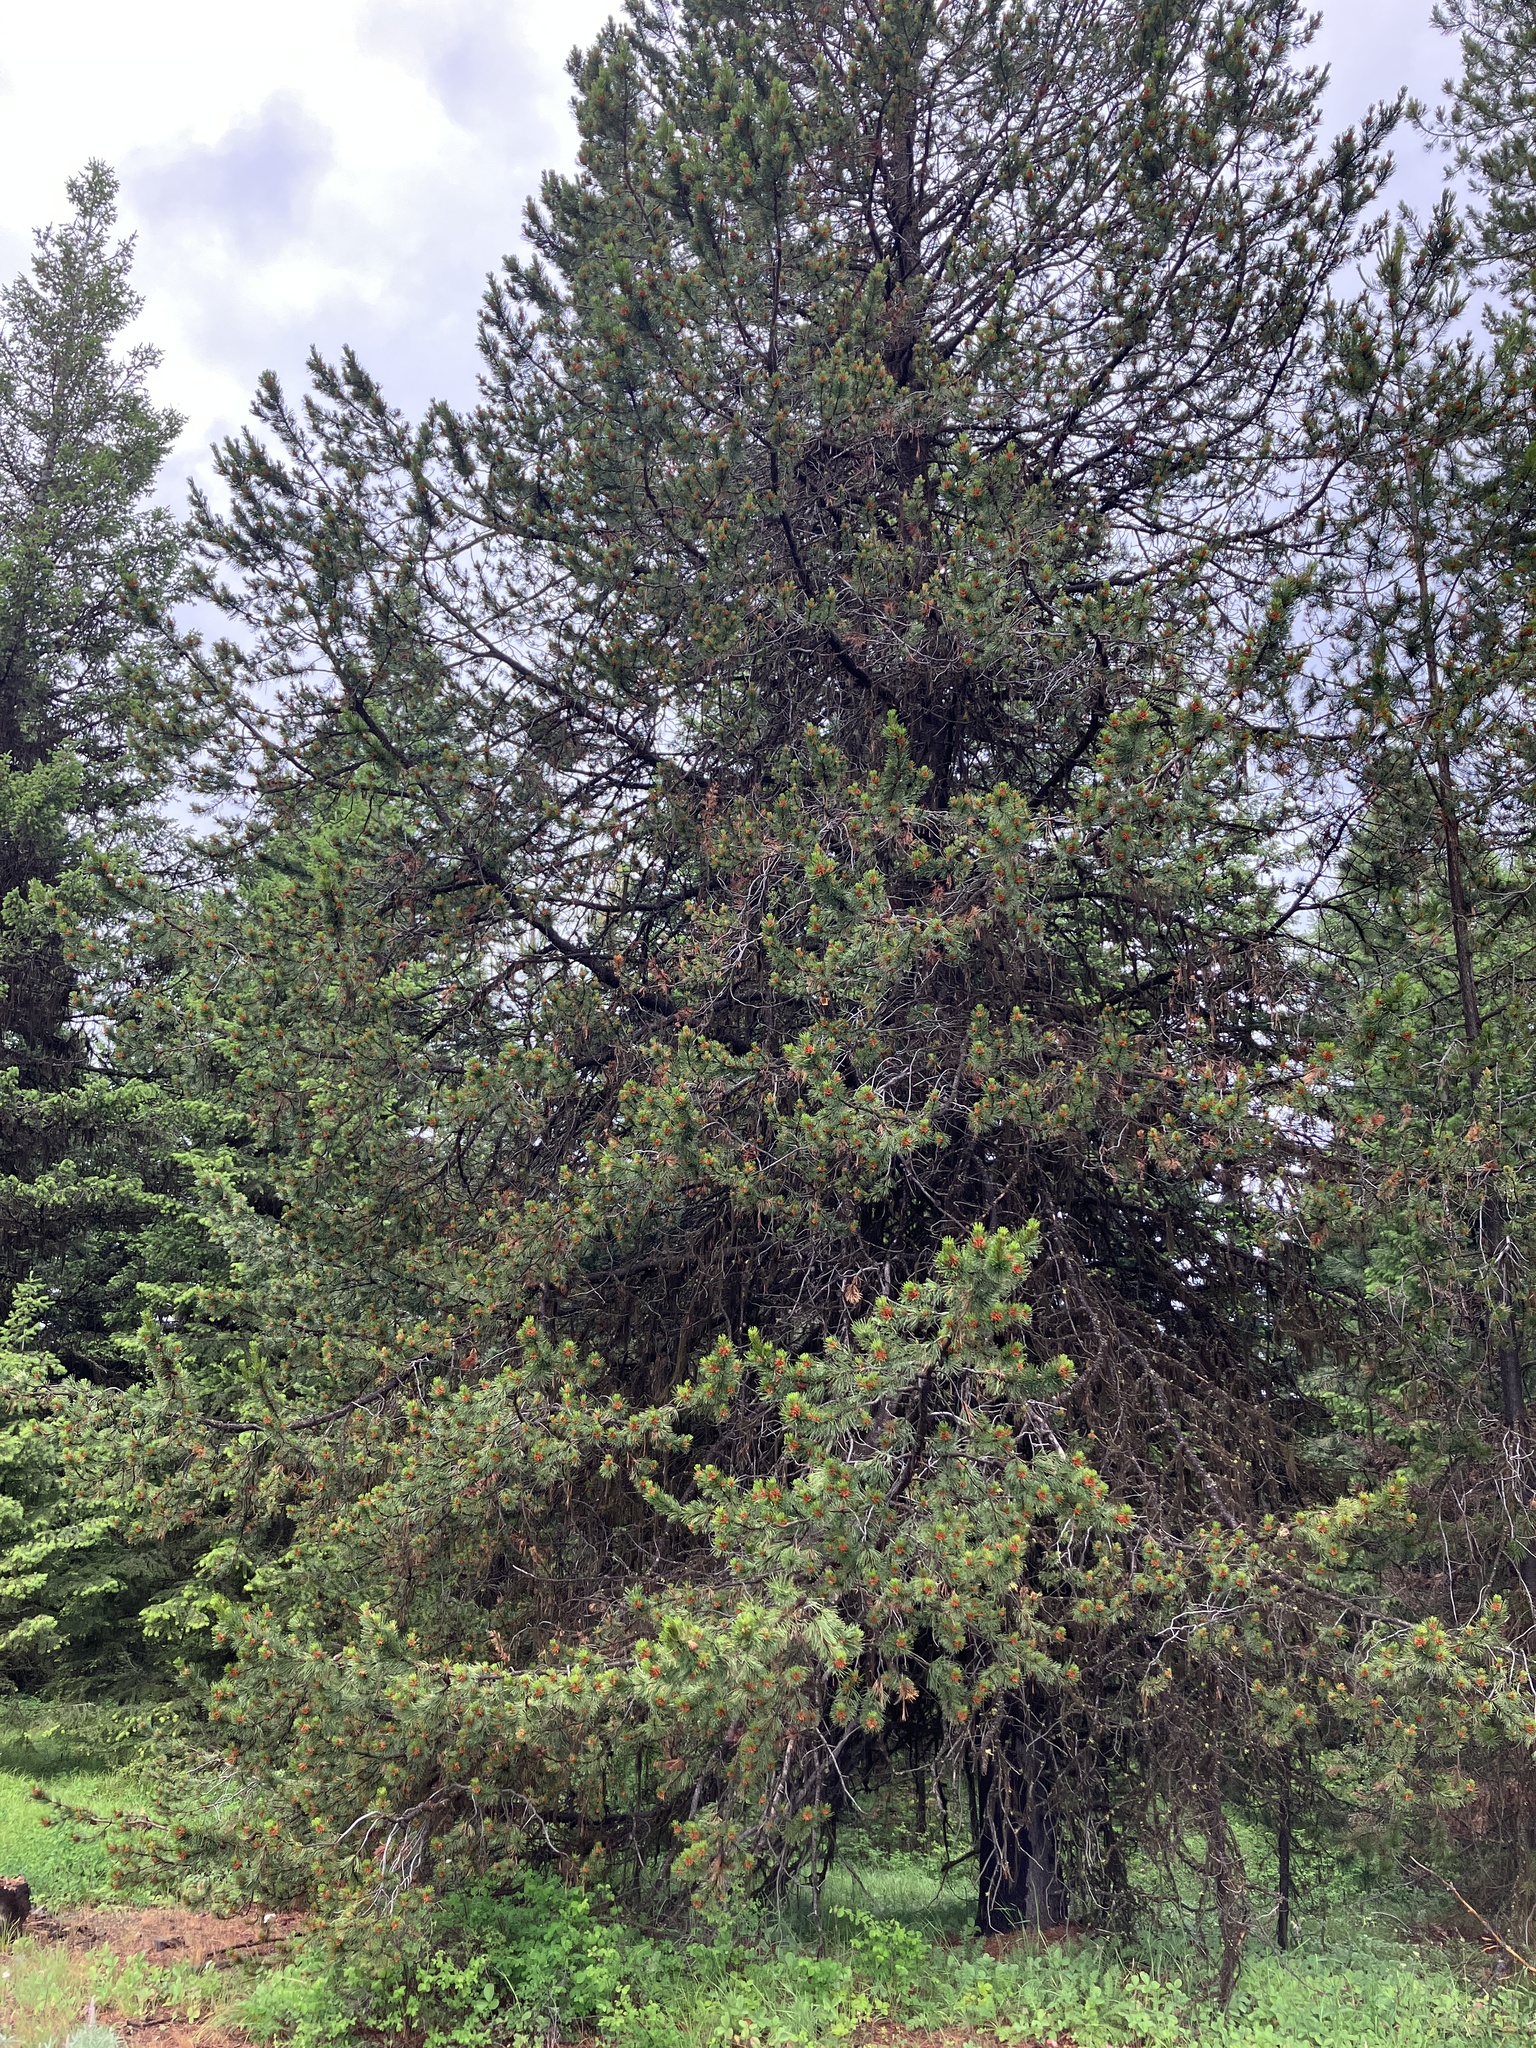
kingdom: Plantae
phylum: Tracheophyta
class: Pinopsida
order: Pinales
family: Pinaceae
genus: Pinus
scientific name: Pinus contorta
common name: Lodgepole pine
